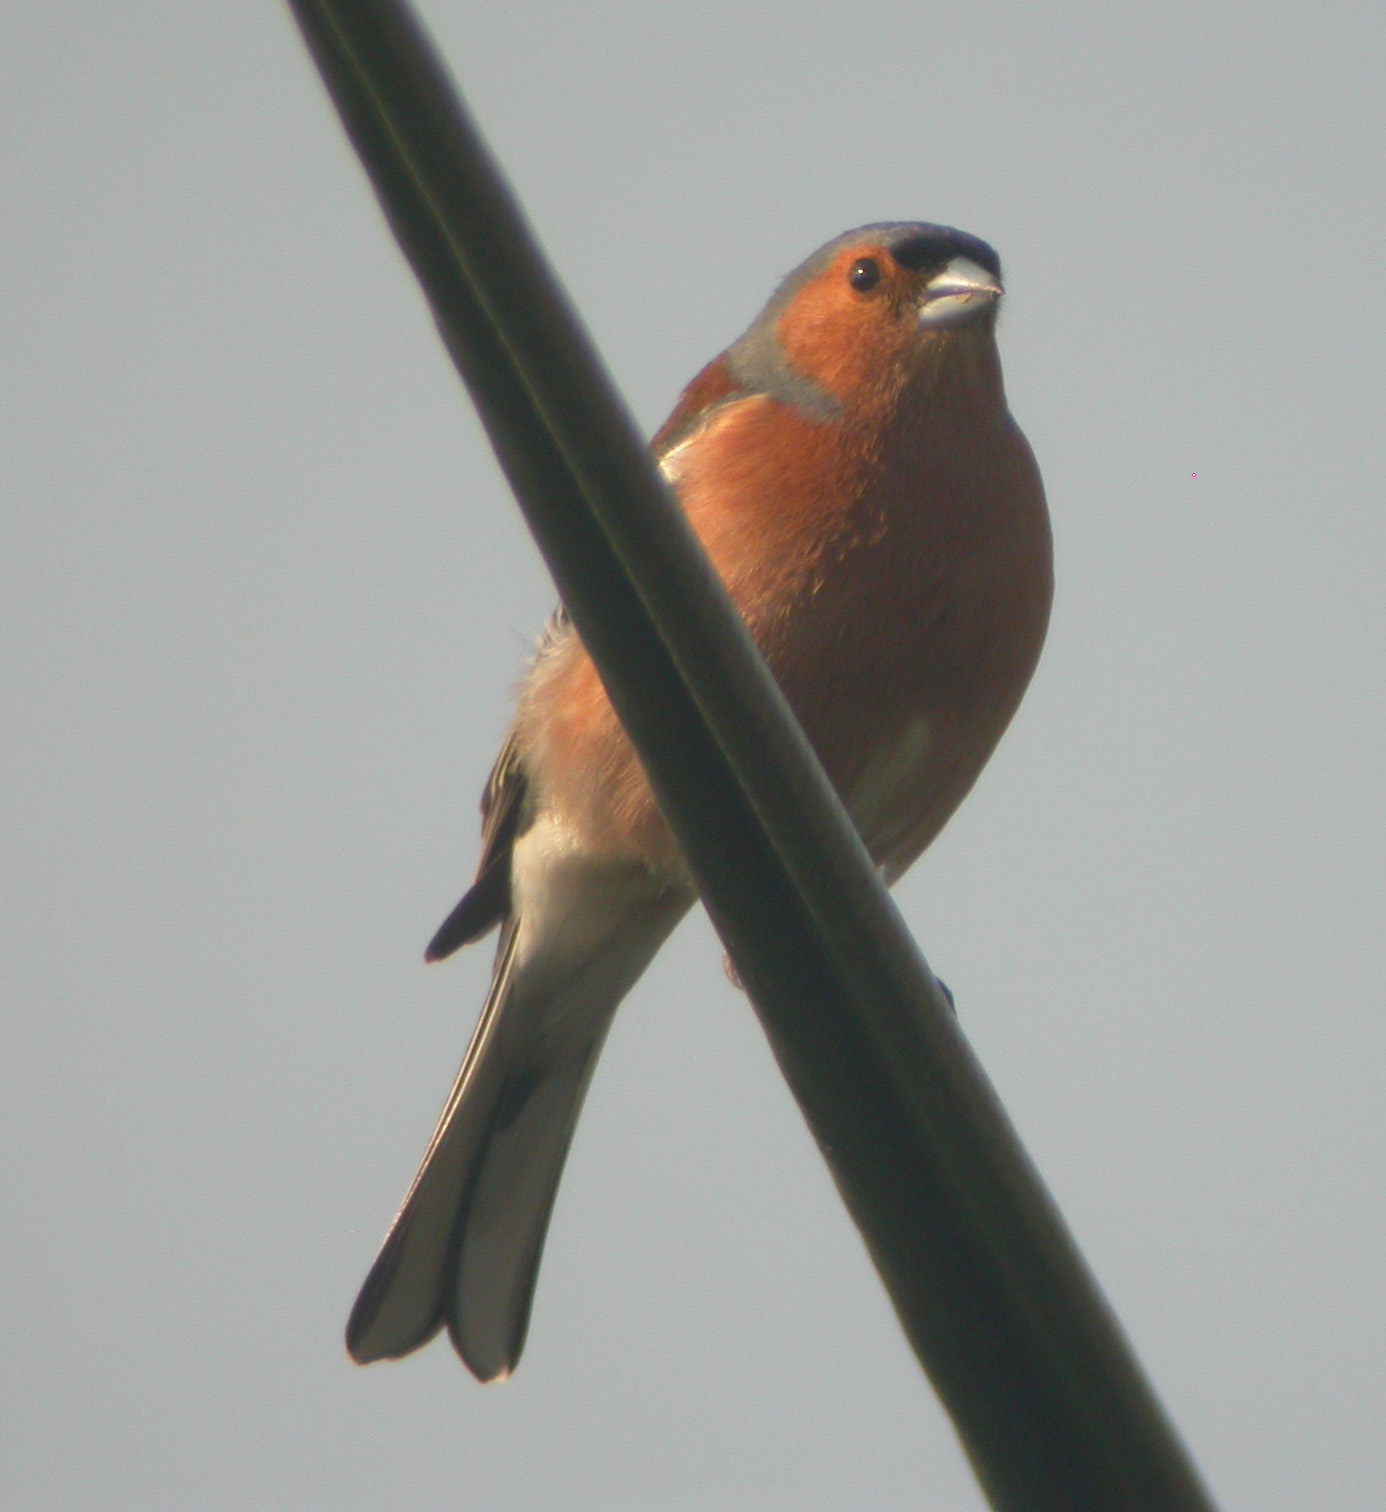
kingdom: Animalia
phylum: Chordata
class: Aves
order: Passeriformes
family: Fringillidae
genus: Fringilla
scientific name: Fringilla coelebs
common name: Common chaffinch
